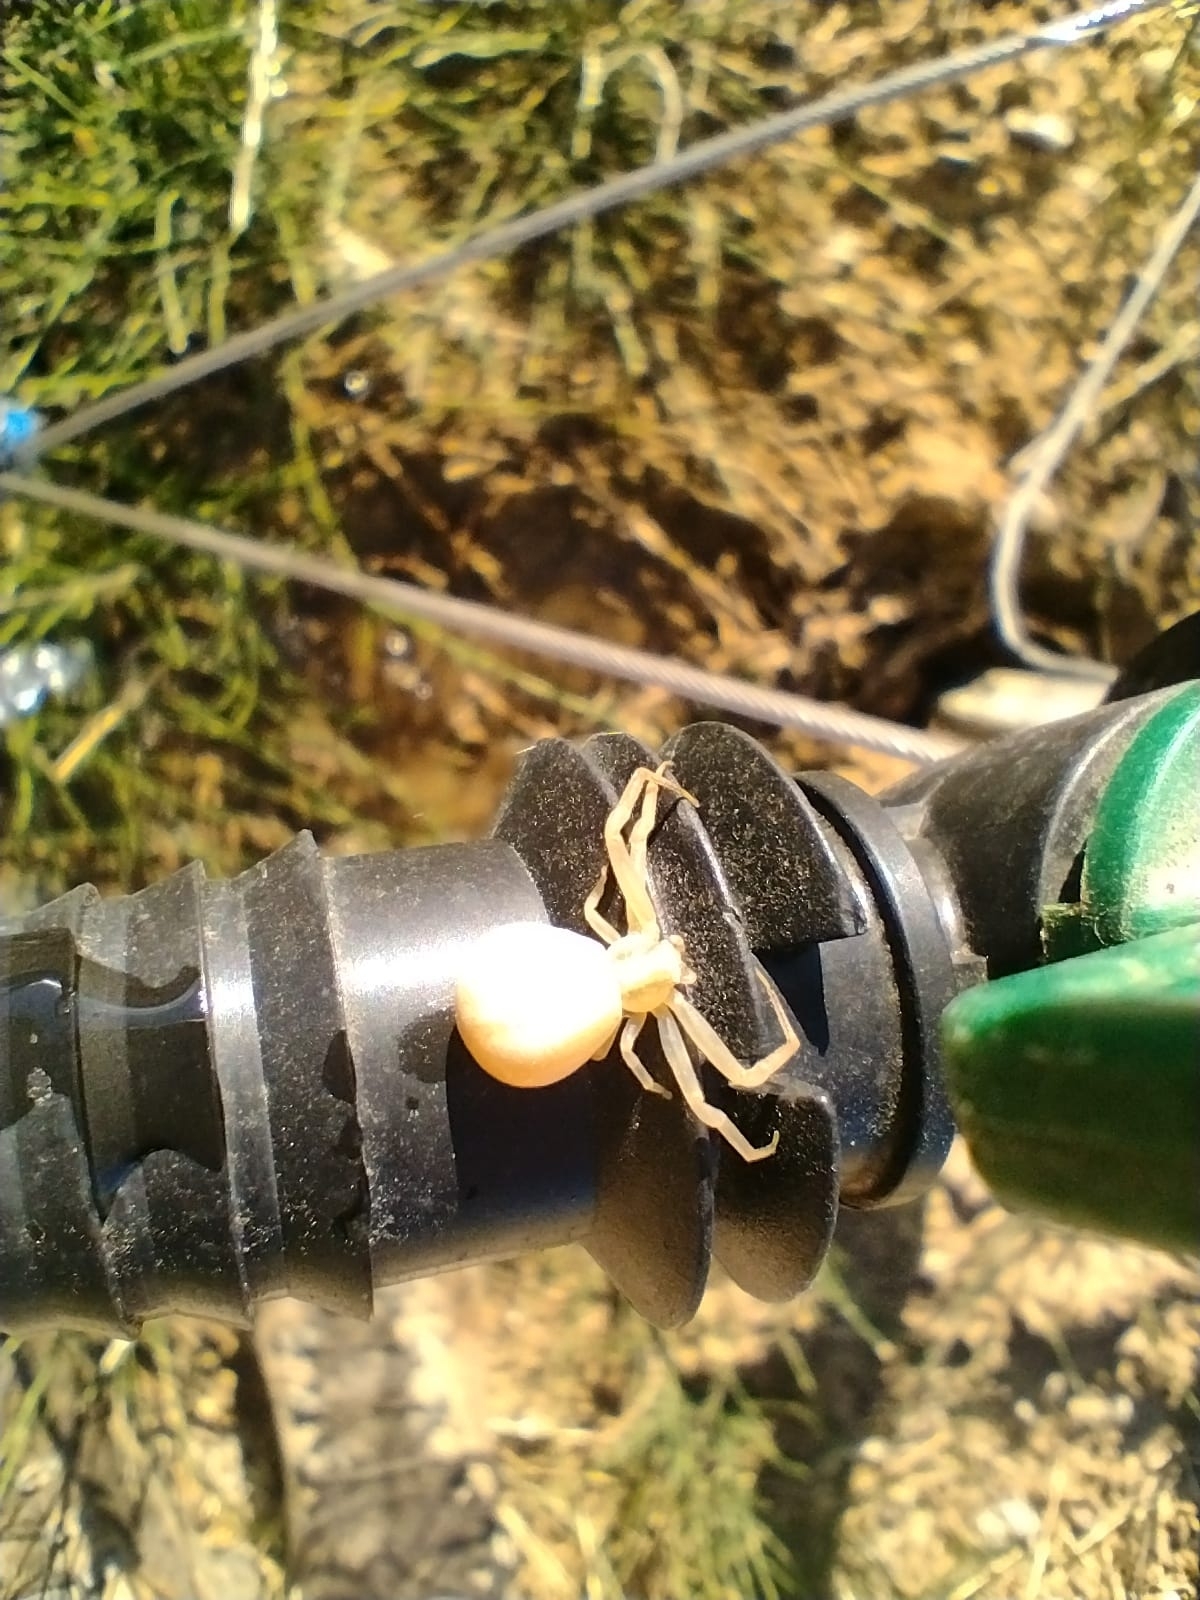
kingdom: Animalia
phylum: Arthropoda
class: Arachnida
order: Araneae
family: Thomisidae
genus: Runcinia
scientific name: Runcinia grammica
